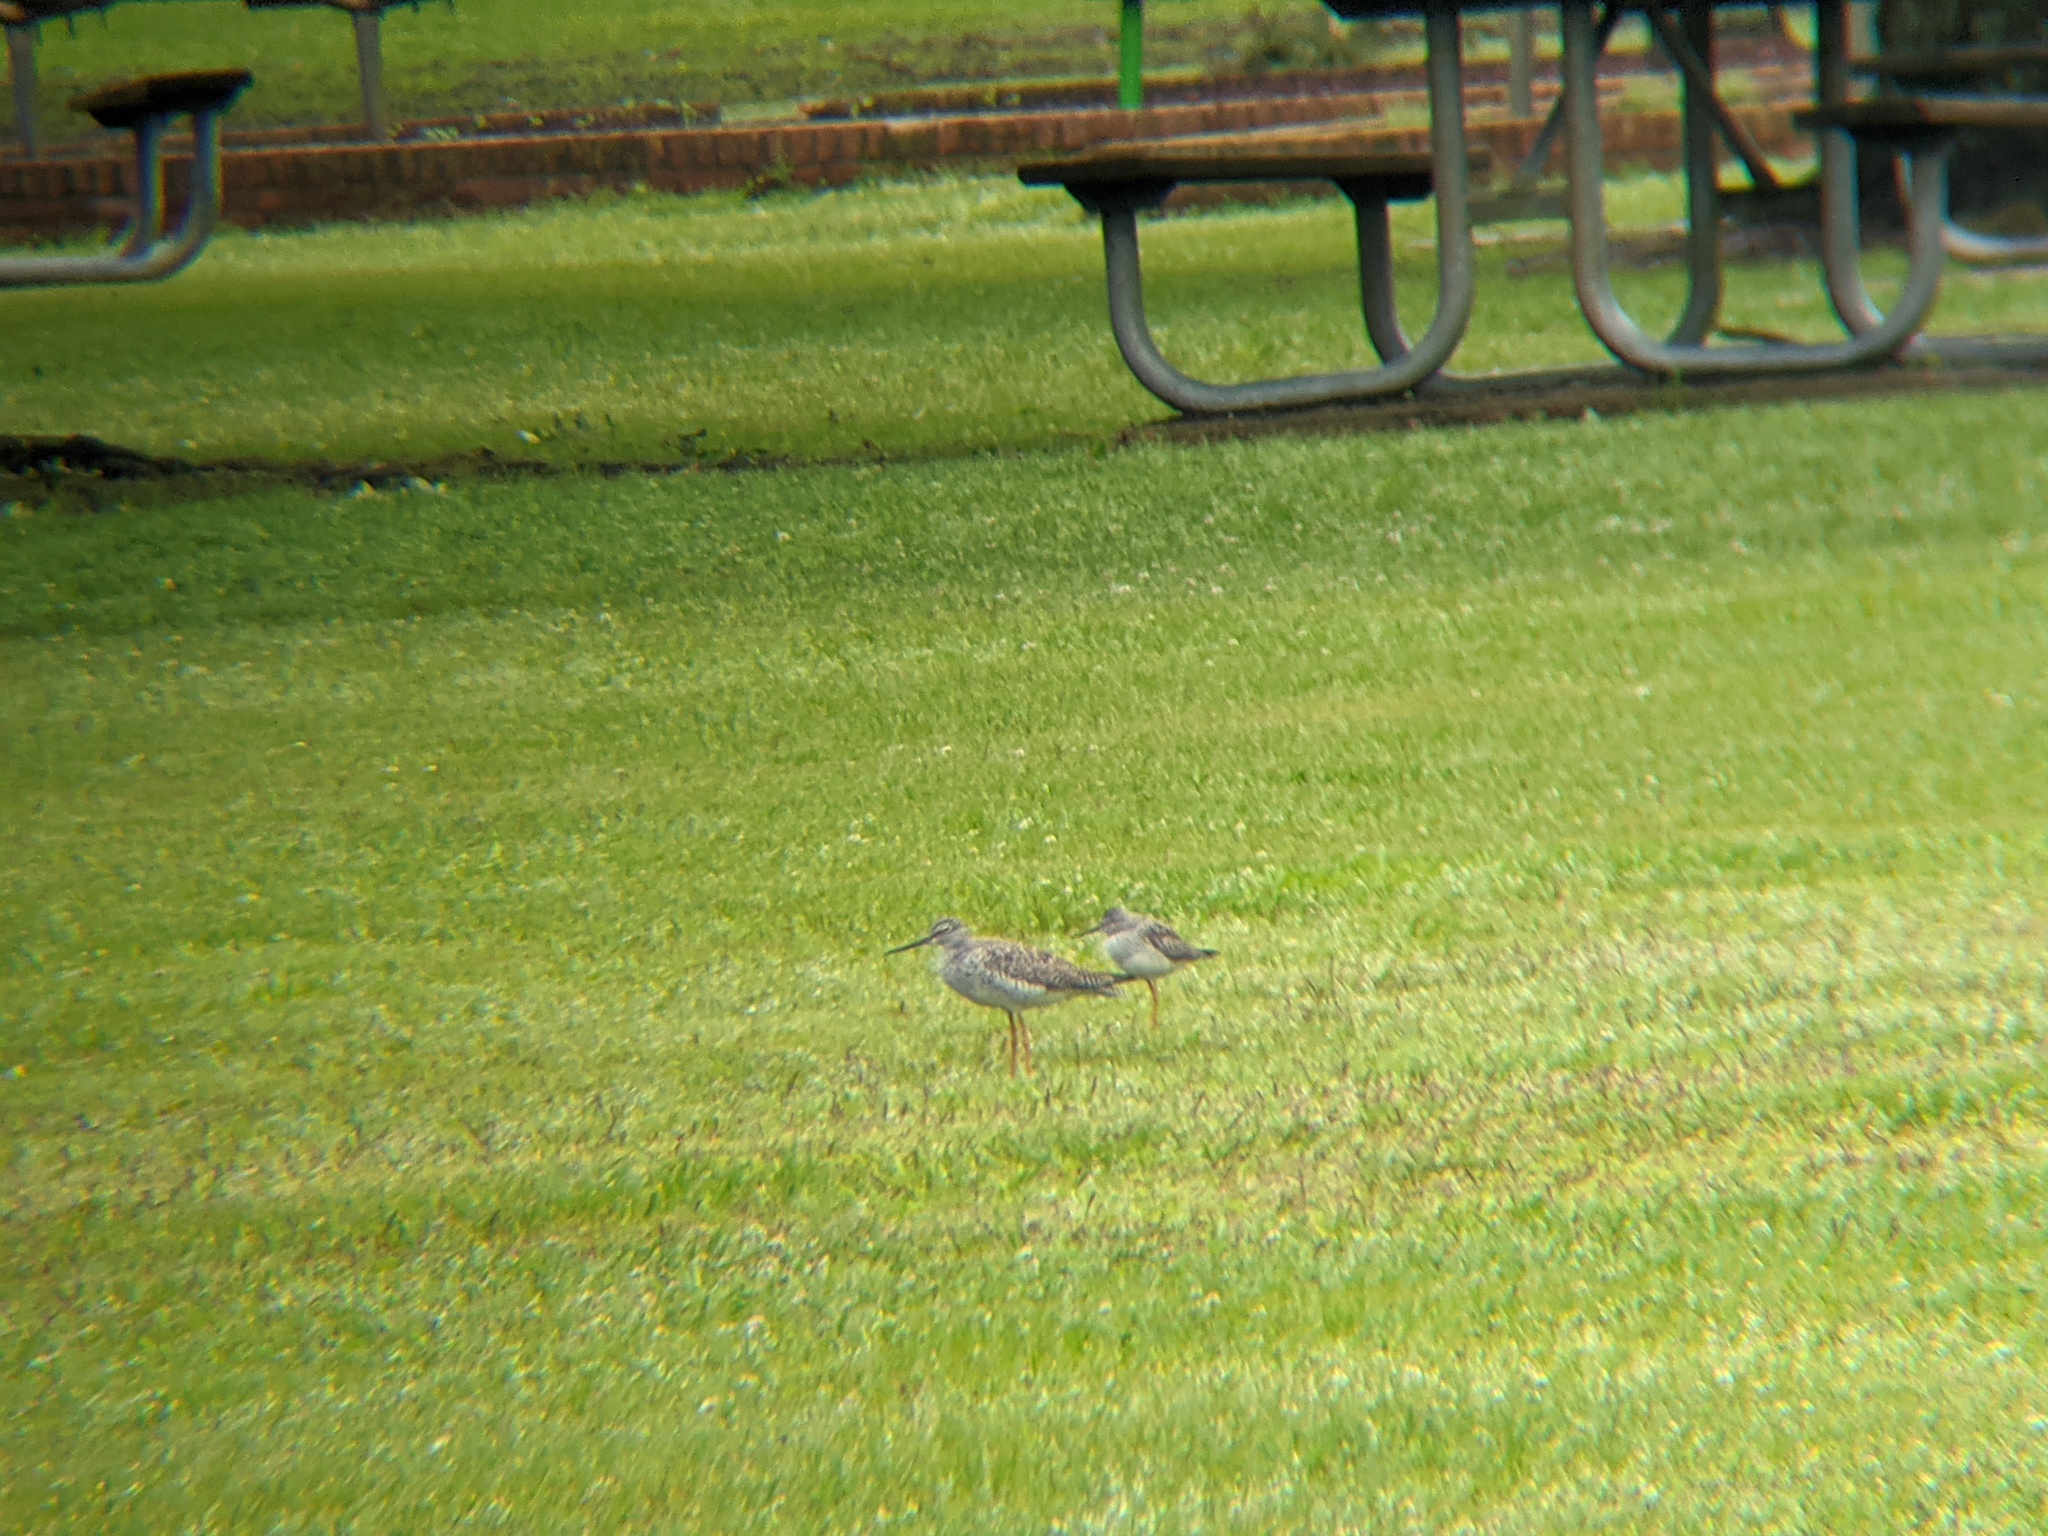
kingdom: Animalia
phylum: Chordata
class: Aves
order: Charadriiformes
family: Scolopacidae
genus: Tringa
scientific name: Tringa melanoleuca
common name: Greater yellowlegs
